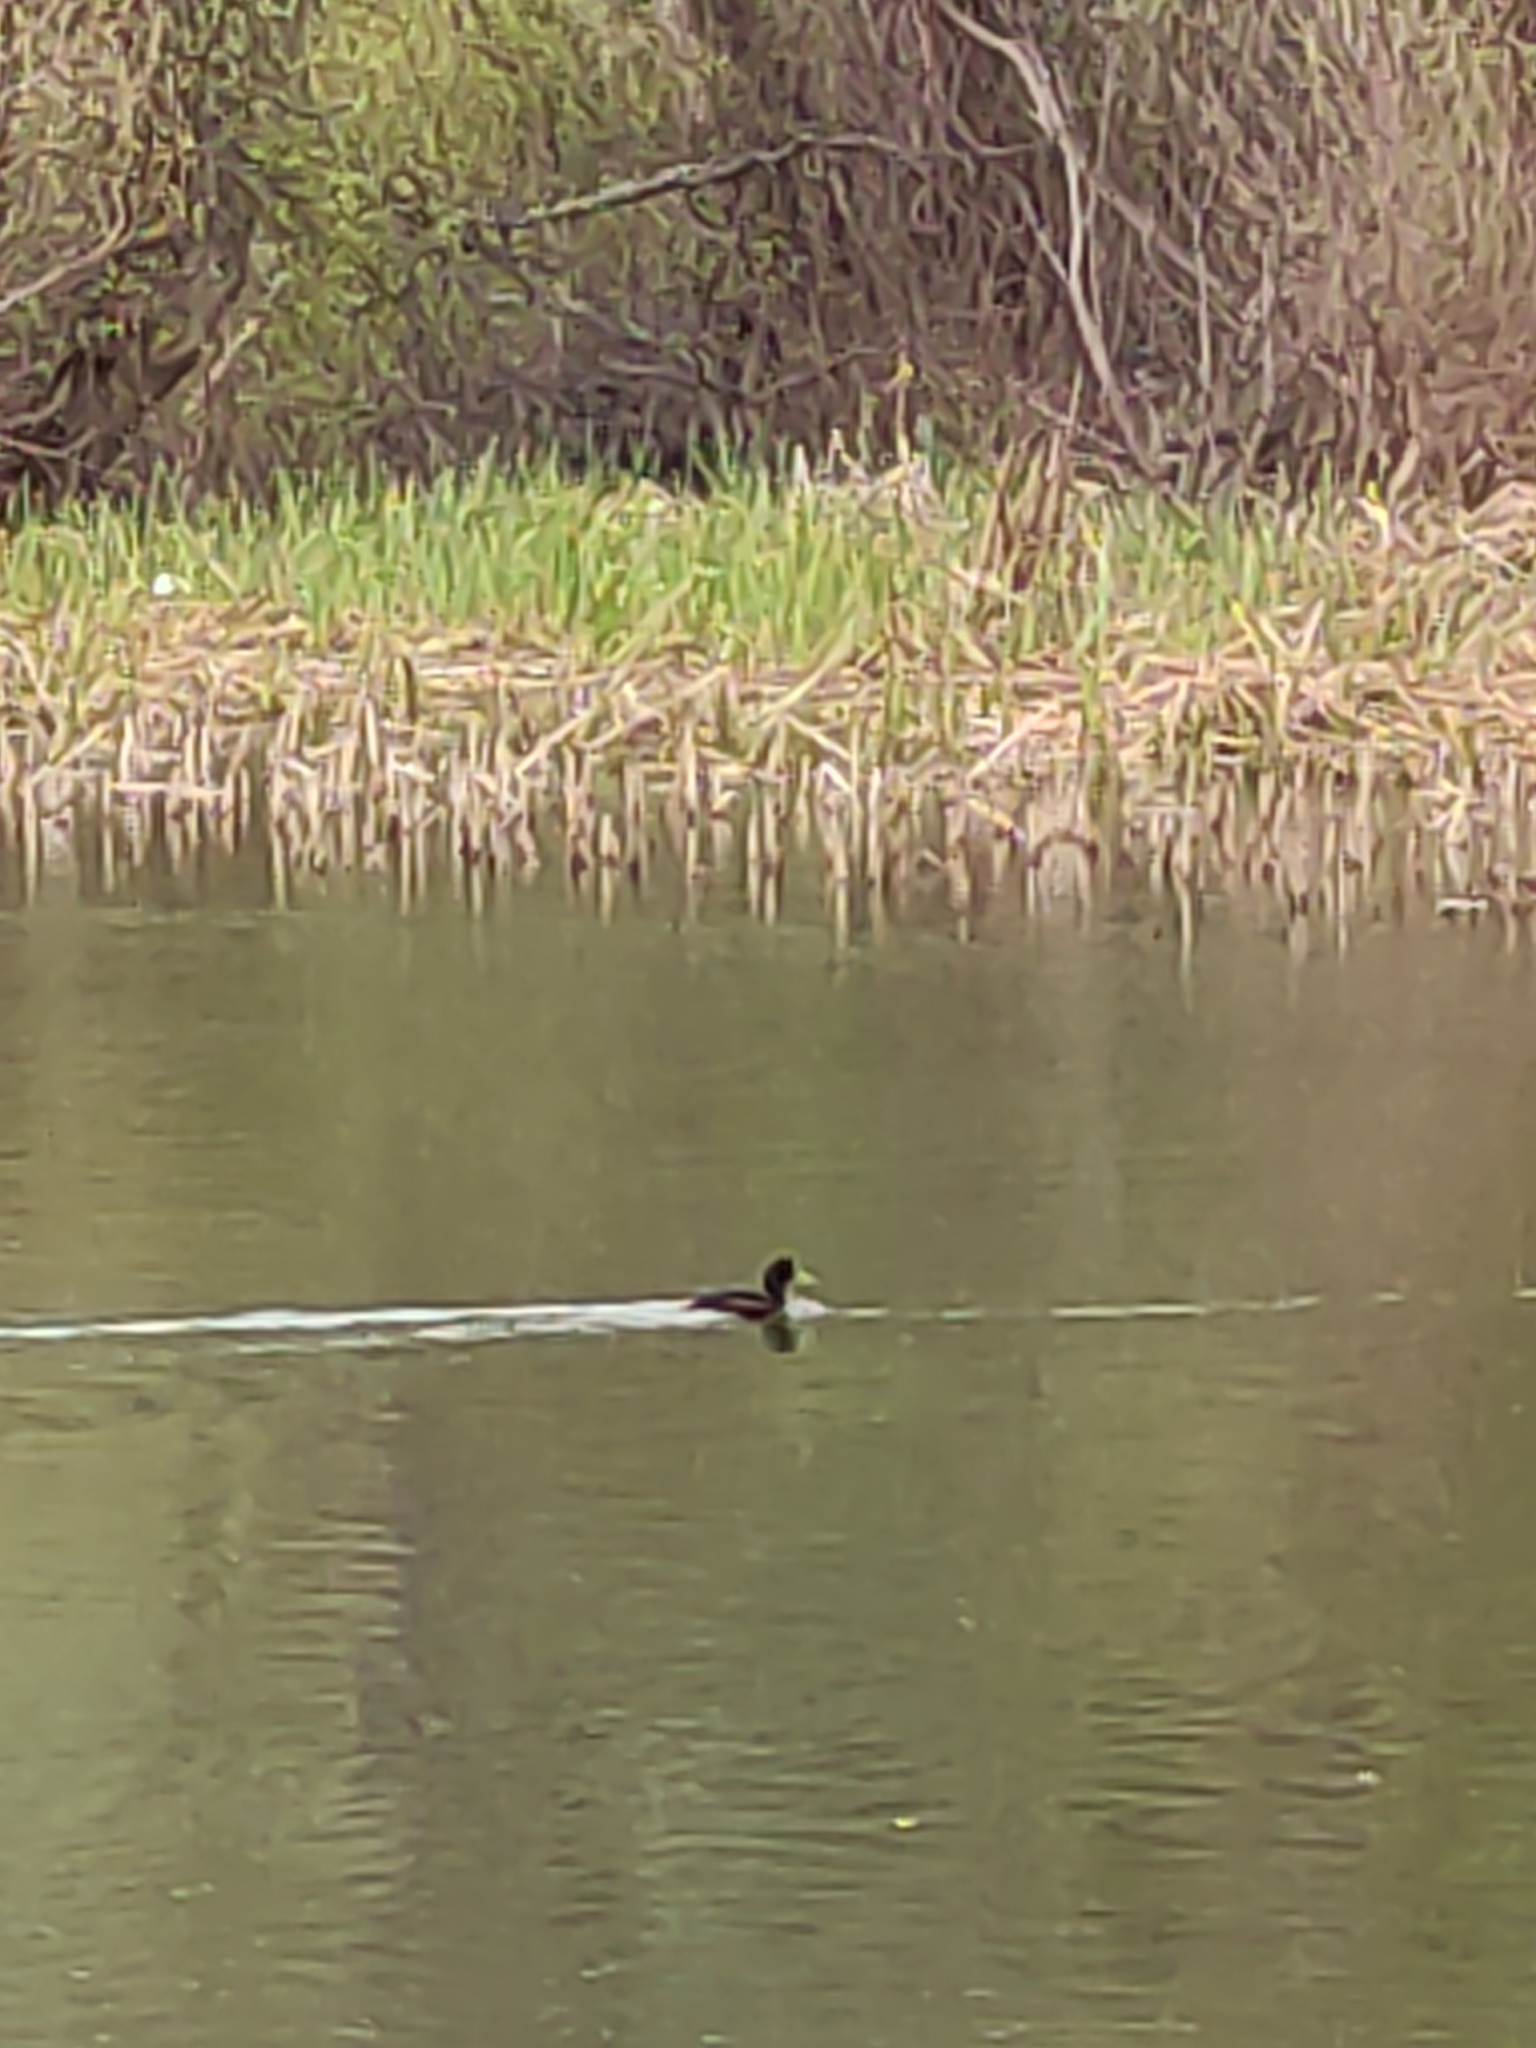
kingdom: Animalia
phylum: Chordata
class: Aves
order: Anseriformes
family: Anatidae
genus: Aythya
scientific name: Aythya novaeseelandiae
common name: New zealand scaup
